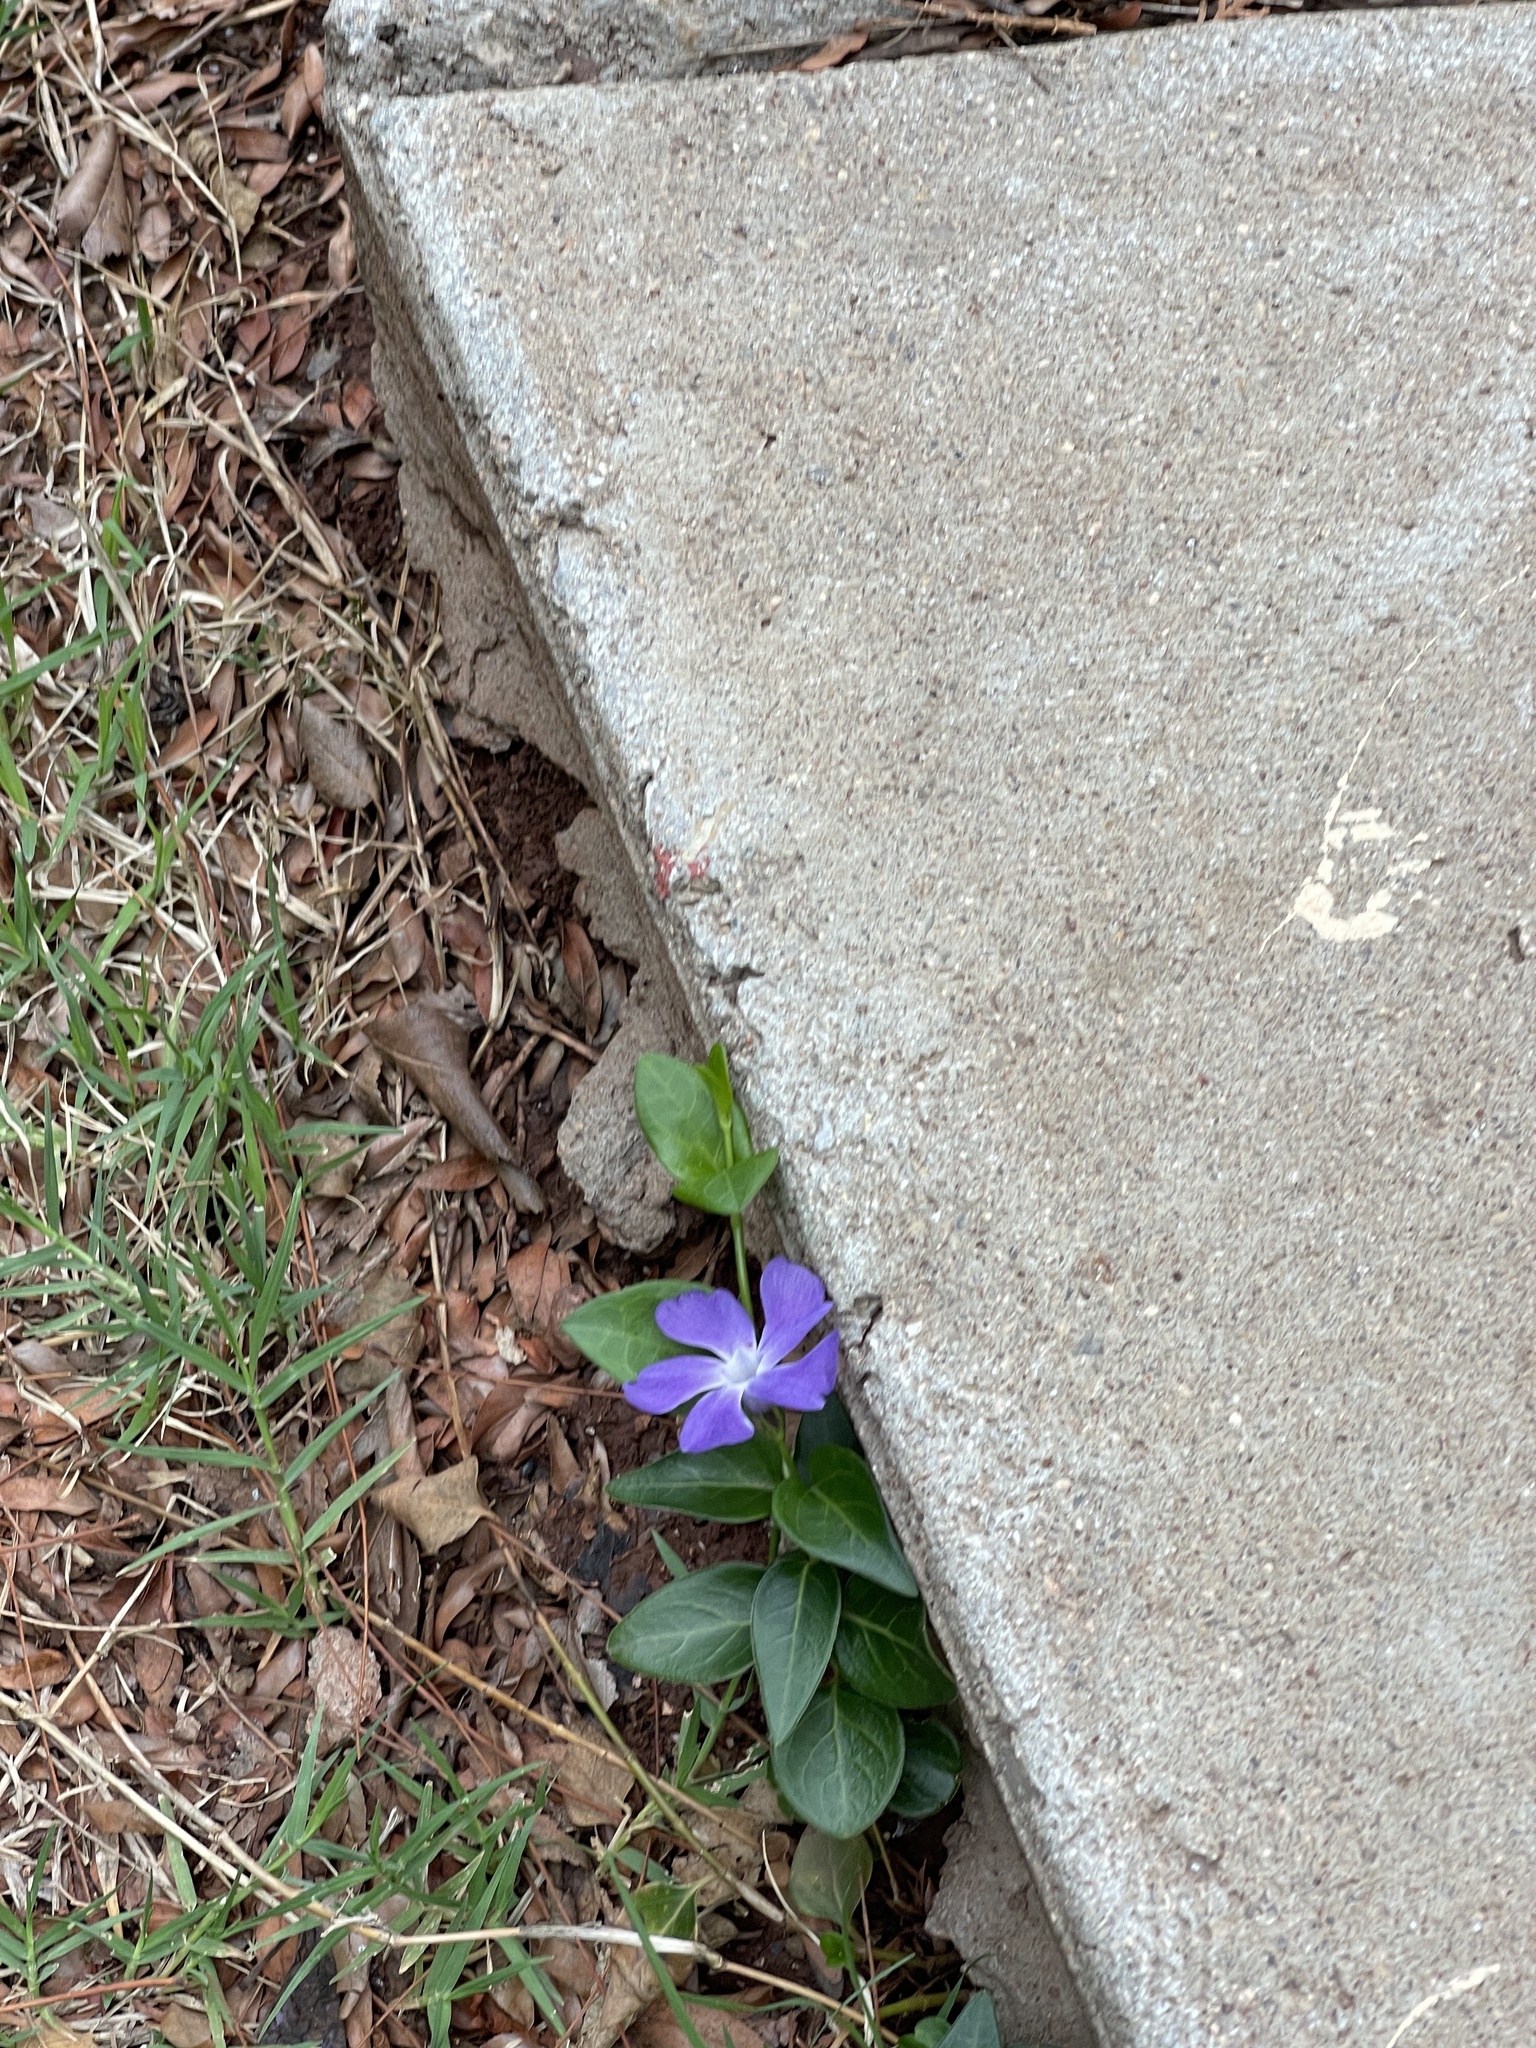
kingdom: Plantae
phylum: Tracheophyta
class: Magnoliopsida
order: Gentianales
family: Apocynaceae
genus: Vinca
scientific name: Vinca major
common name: Greater periwinkle
